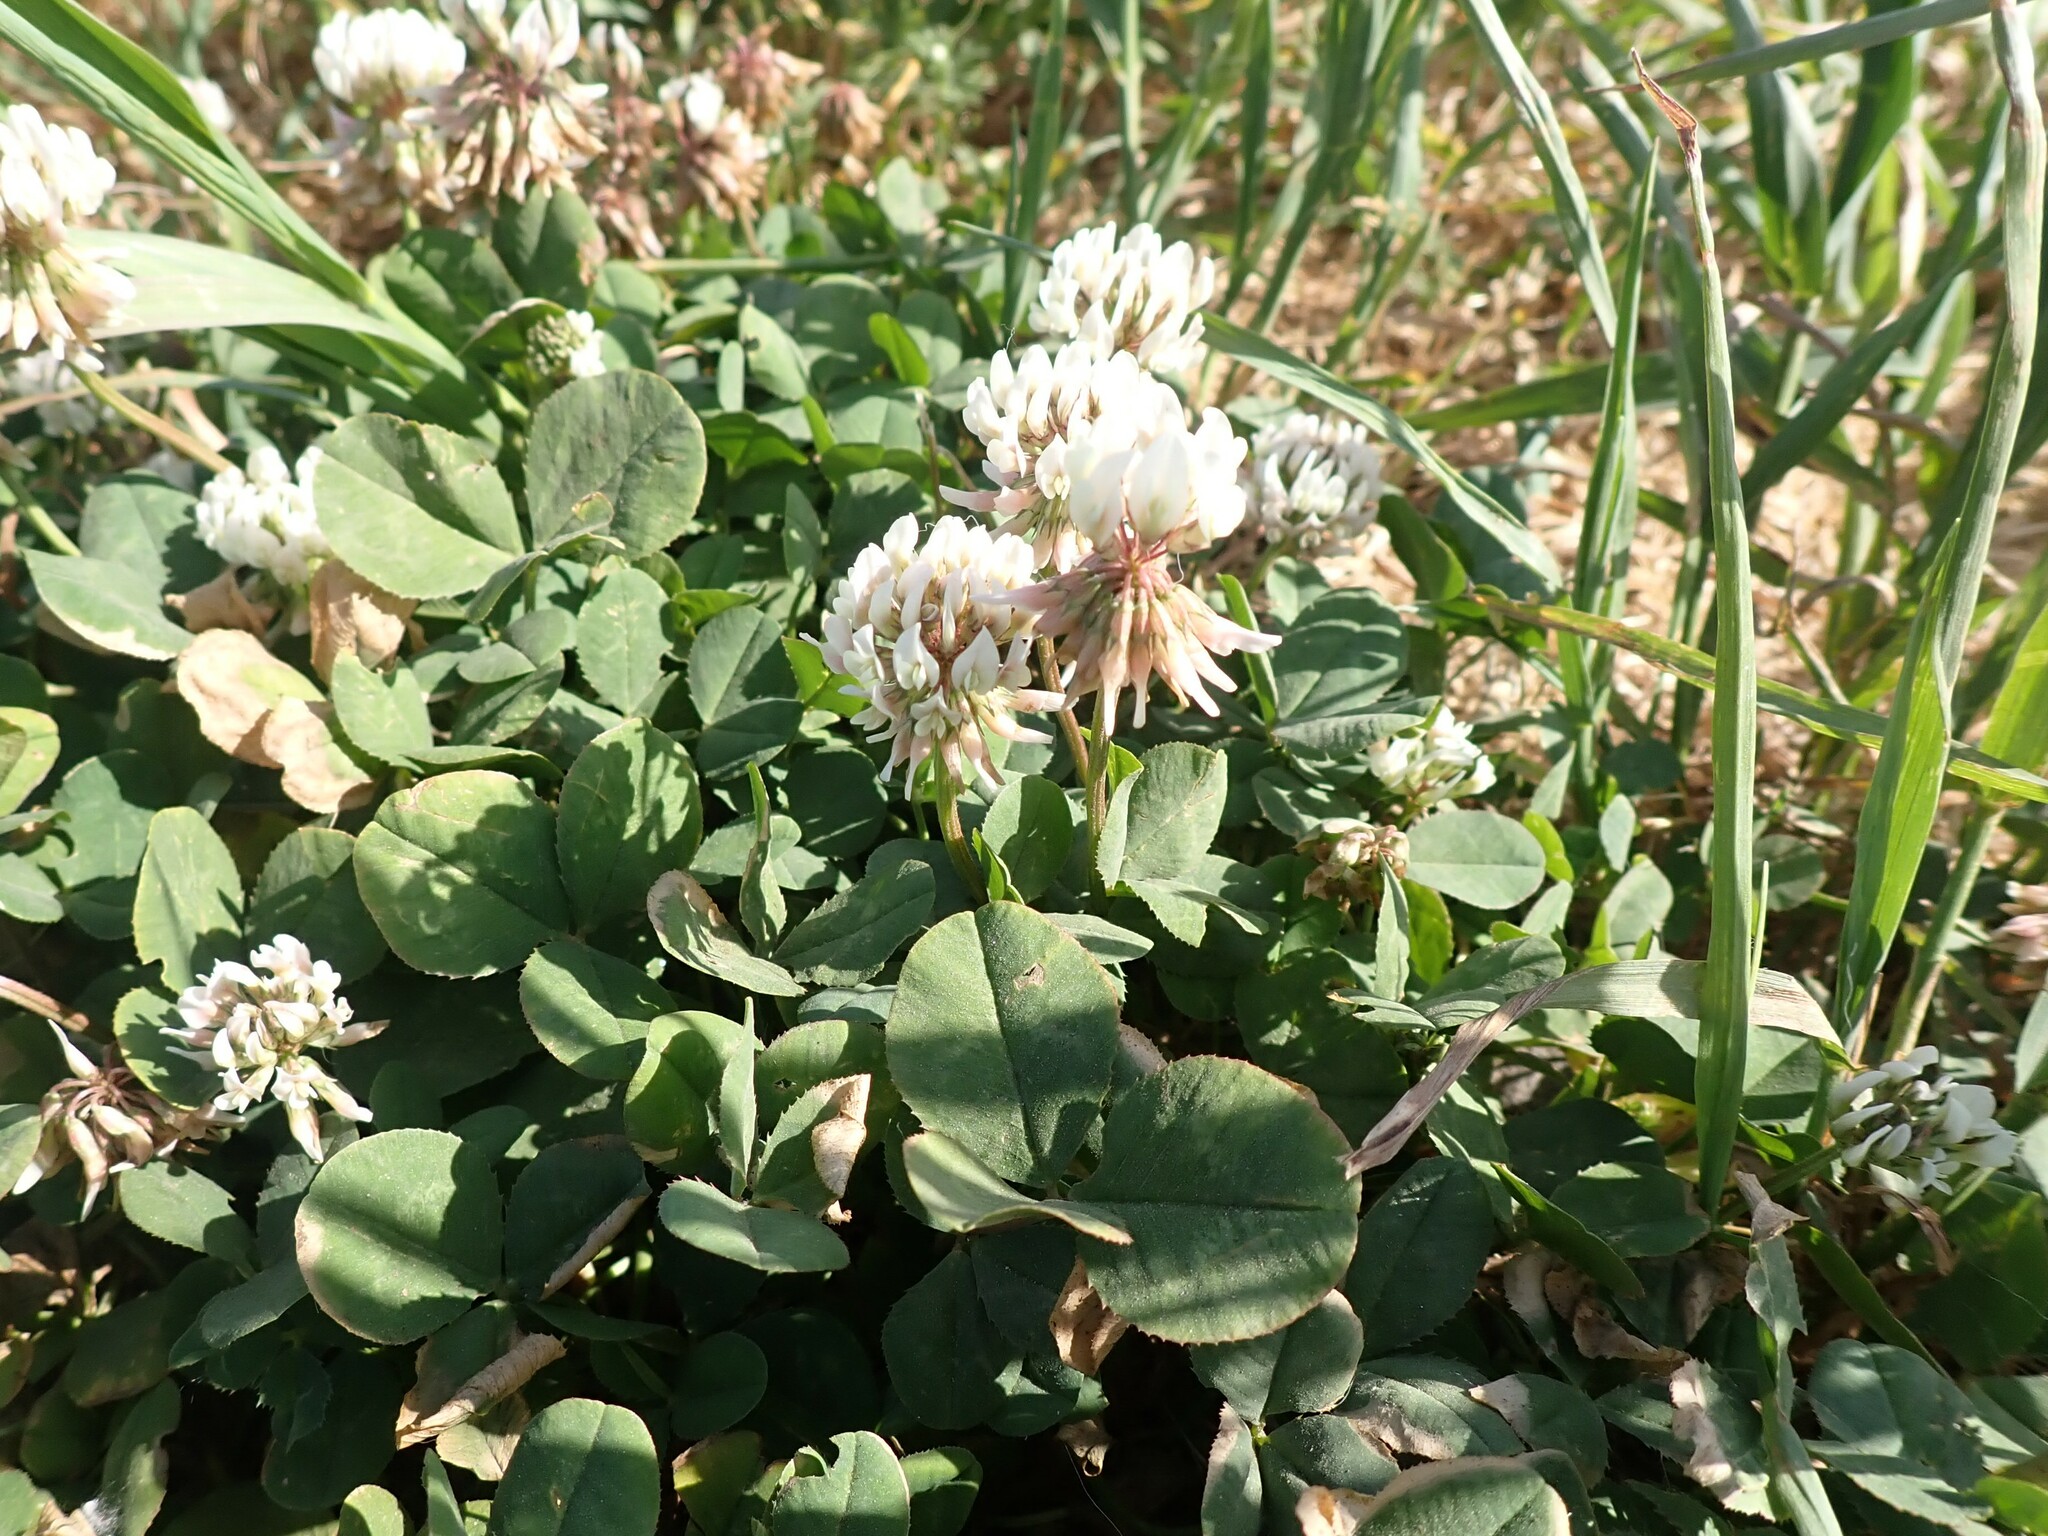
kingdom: Plantae
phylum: Tracheophyta
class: Magnoliopsida
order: Fabales
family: Fabaceae
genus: Trifolium
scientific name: Trifolium repens
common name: White clover
